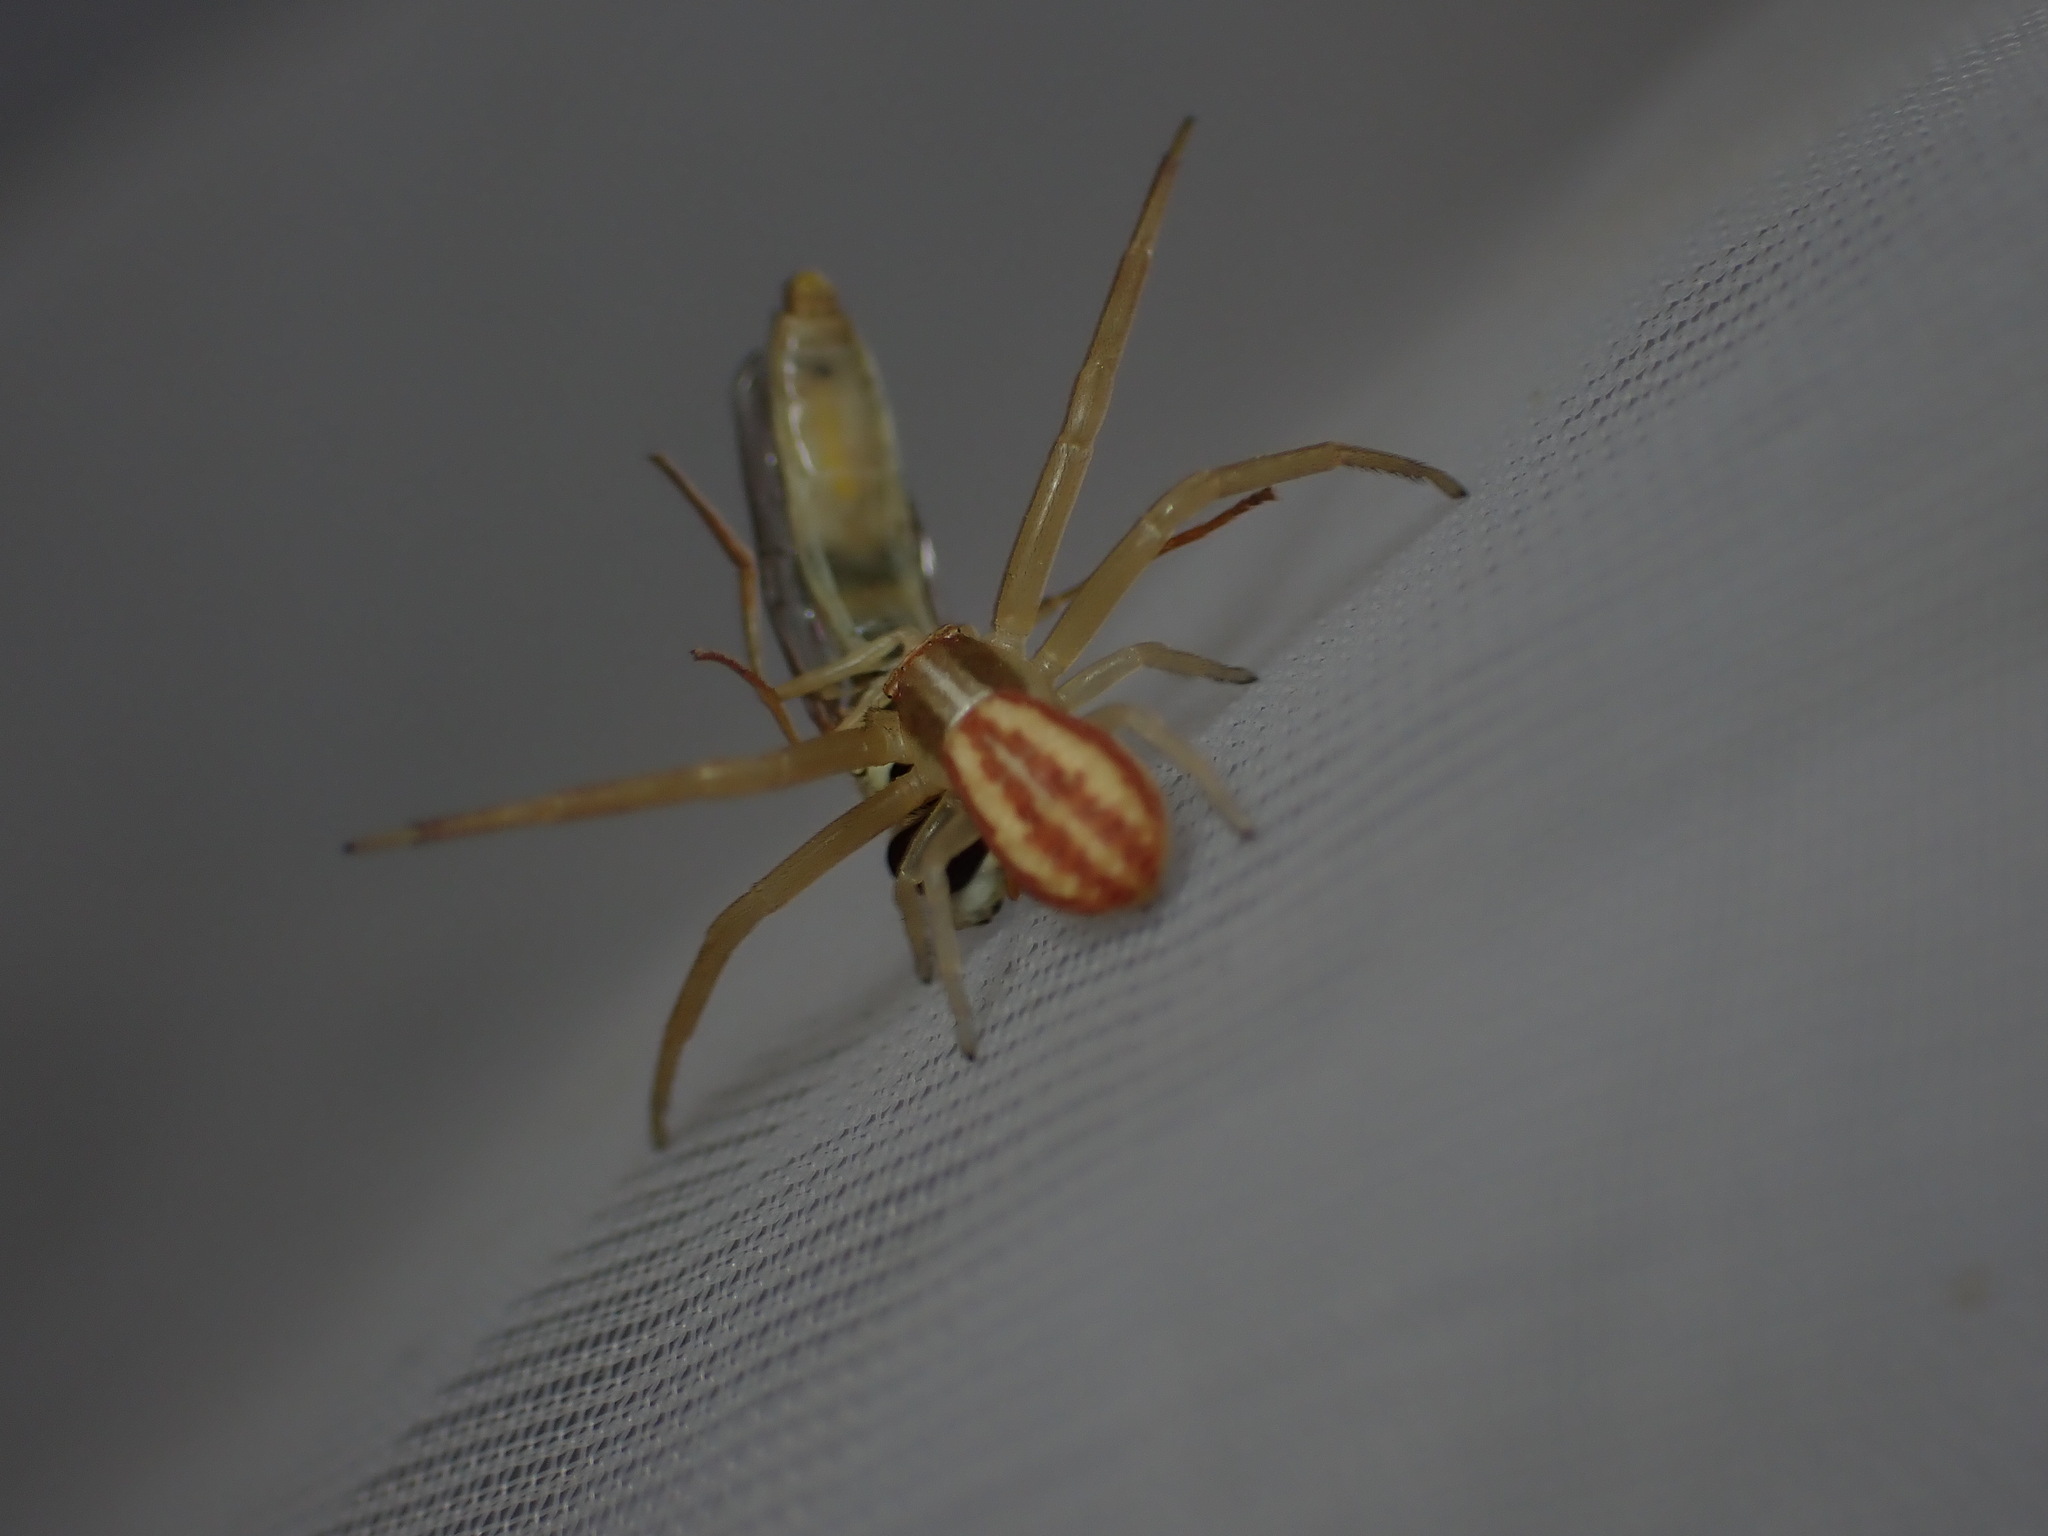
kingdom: Animalia
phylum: Arthropoda
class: Arachnida
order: Araneae
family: Thomisidae
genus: Runcinia
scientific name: Runcinia grammica
